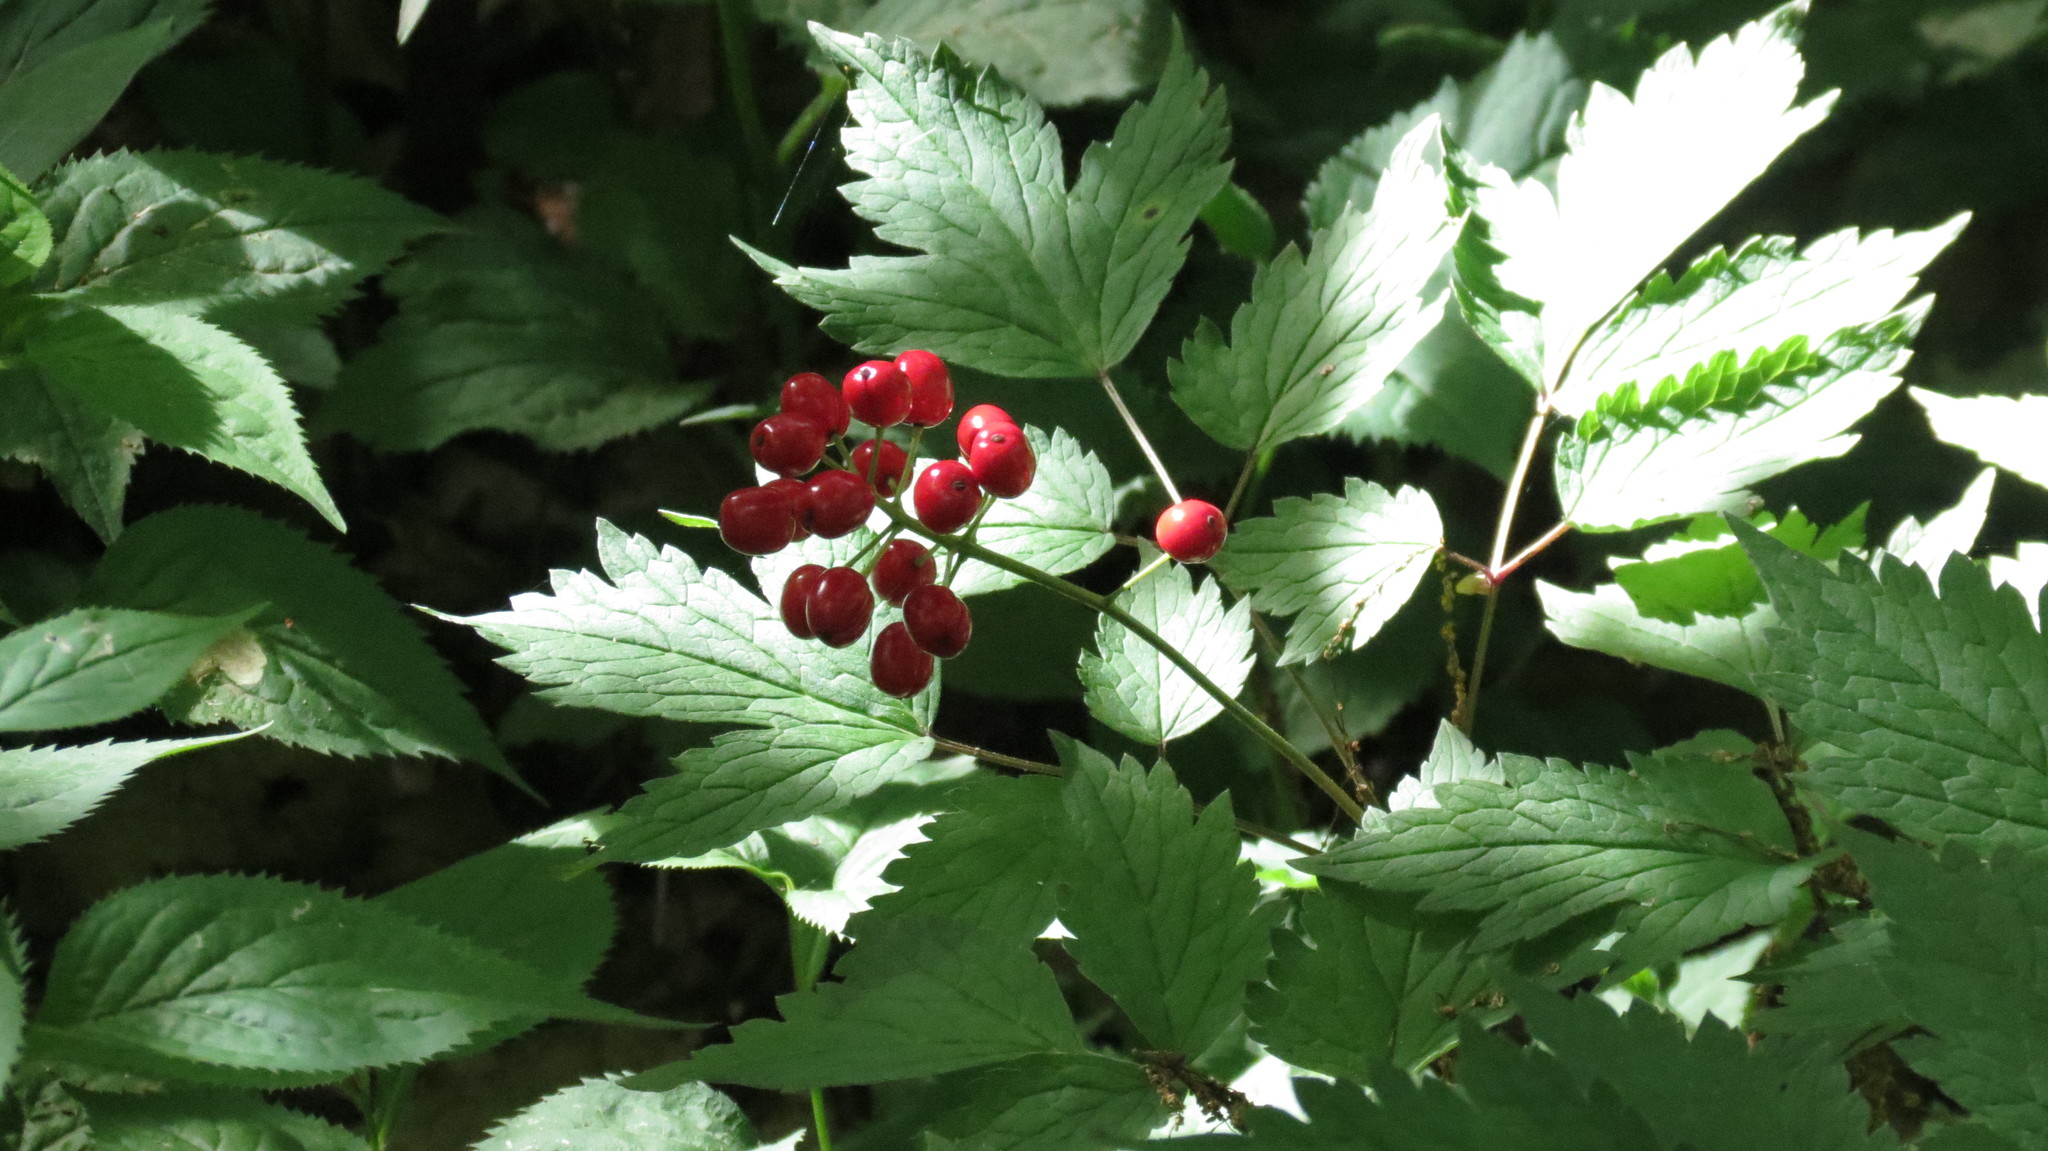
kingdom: Plantae
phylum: Tracheophyta
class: Magnoliopsida
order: Ranunculales
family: Ranunculaceae
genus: Actaea
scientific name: Actaea rubra
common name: Red baneberry
